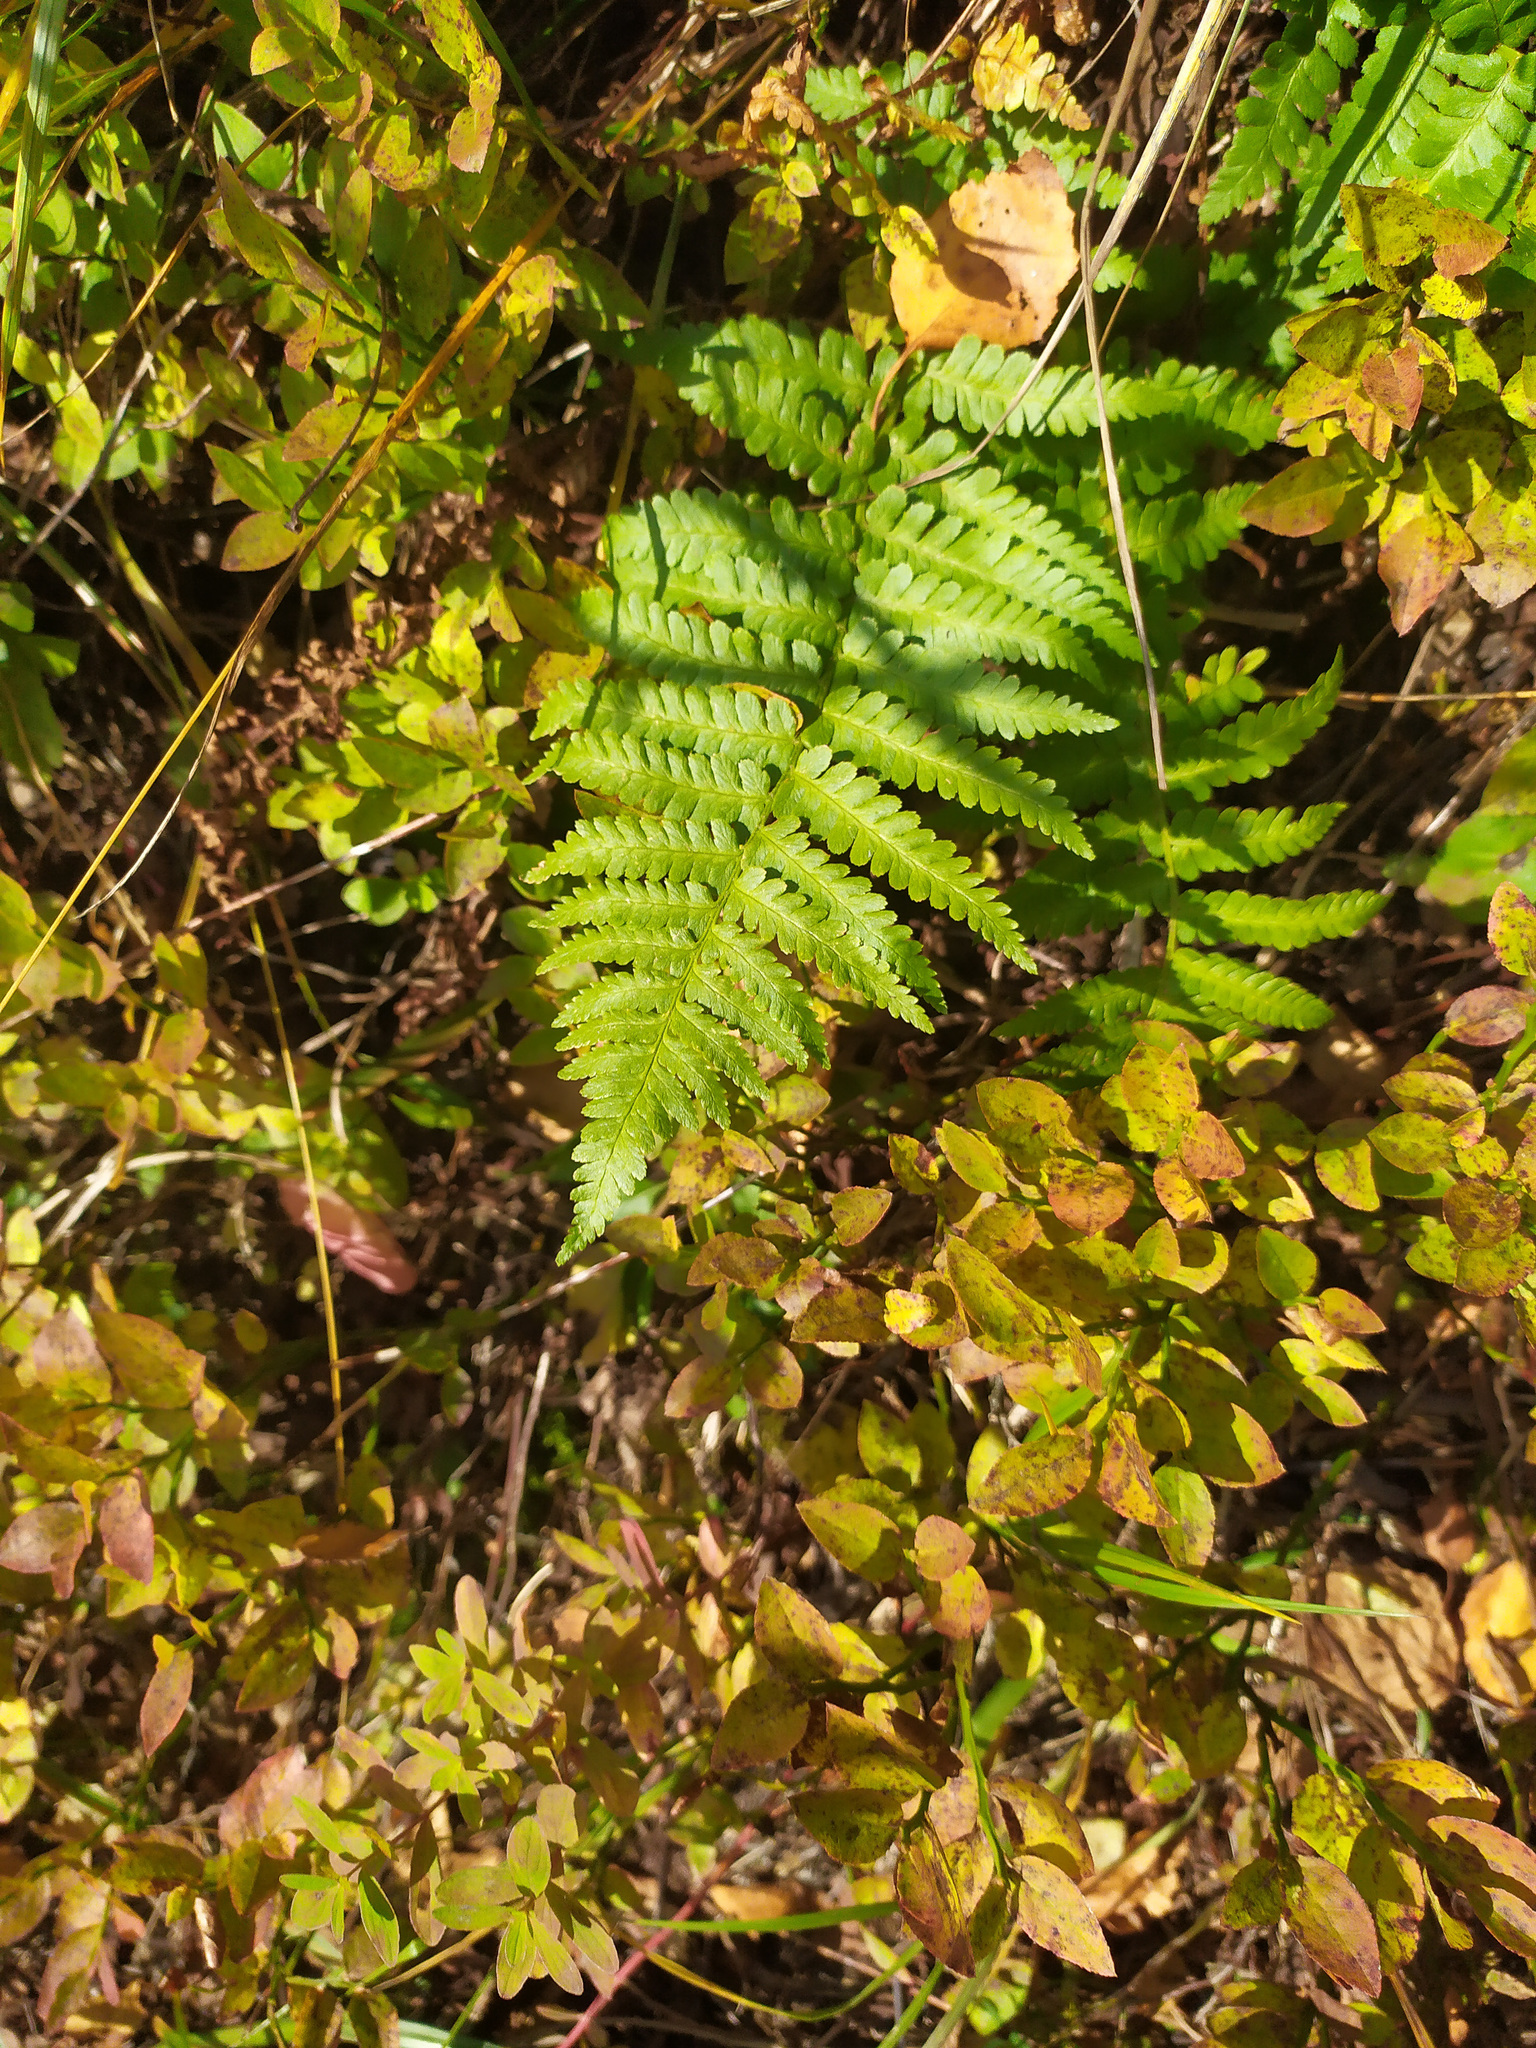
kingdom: Plantae
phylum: Tracheophyta
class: Polypodiopsida
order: Polypodiales
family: Dryopteridaceae
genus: Dryopteris
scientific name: Dryopteris filix-mas
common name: Male fern
